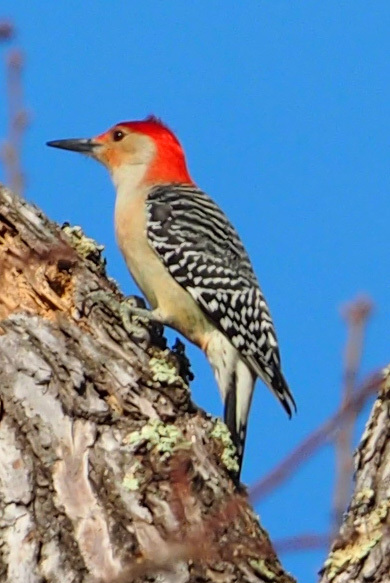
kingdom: Animalia
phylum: Chordata
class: Aves
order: Piciformes
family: Picidae
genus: Melanerpes
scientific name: Melanerpes carolinus
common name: Red-bellied woodpecker
